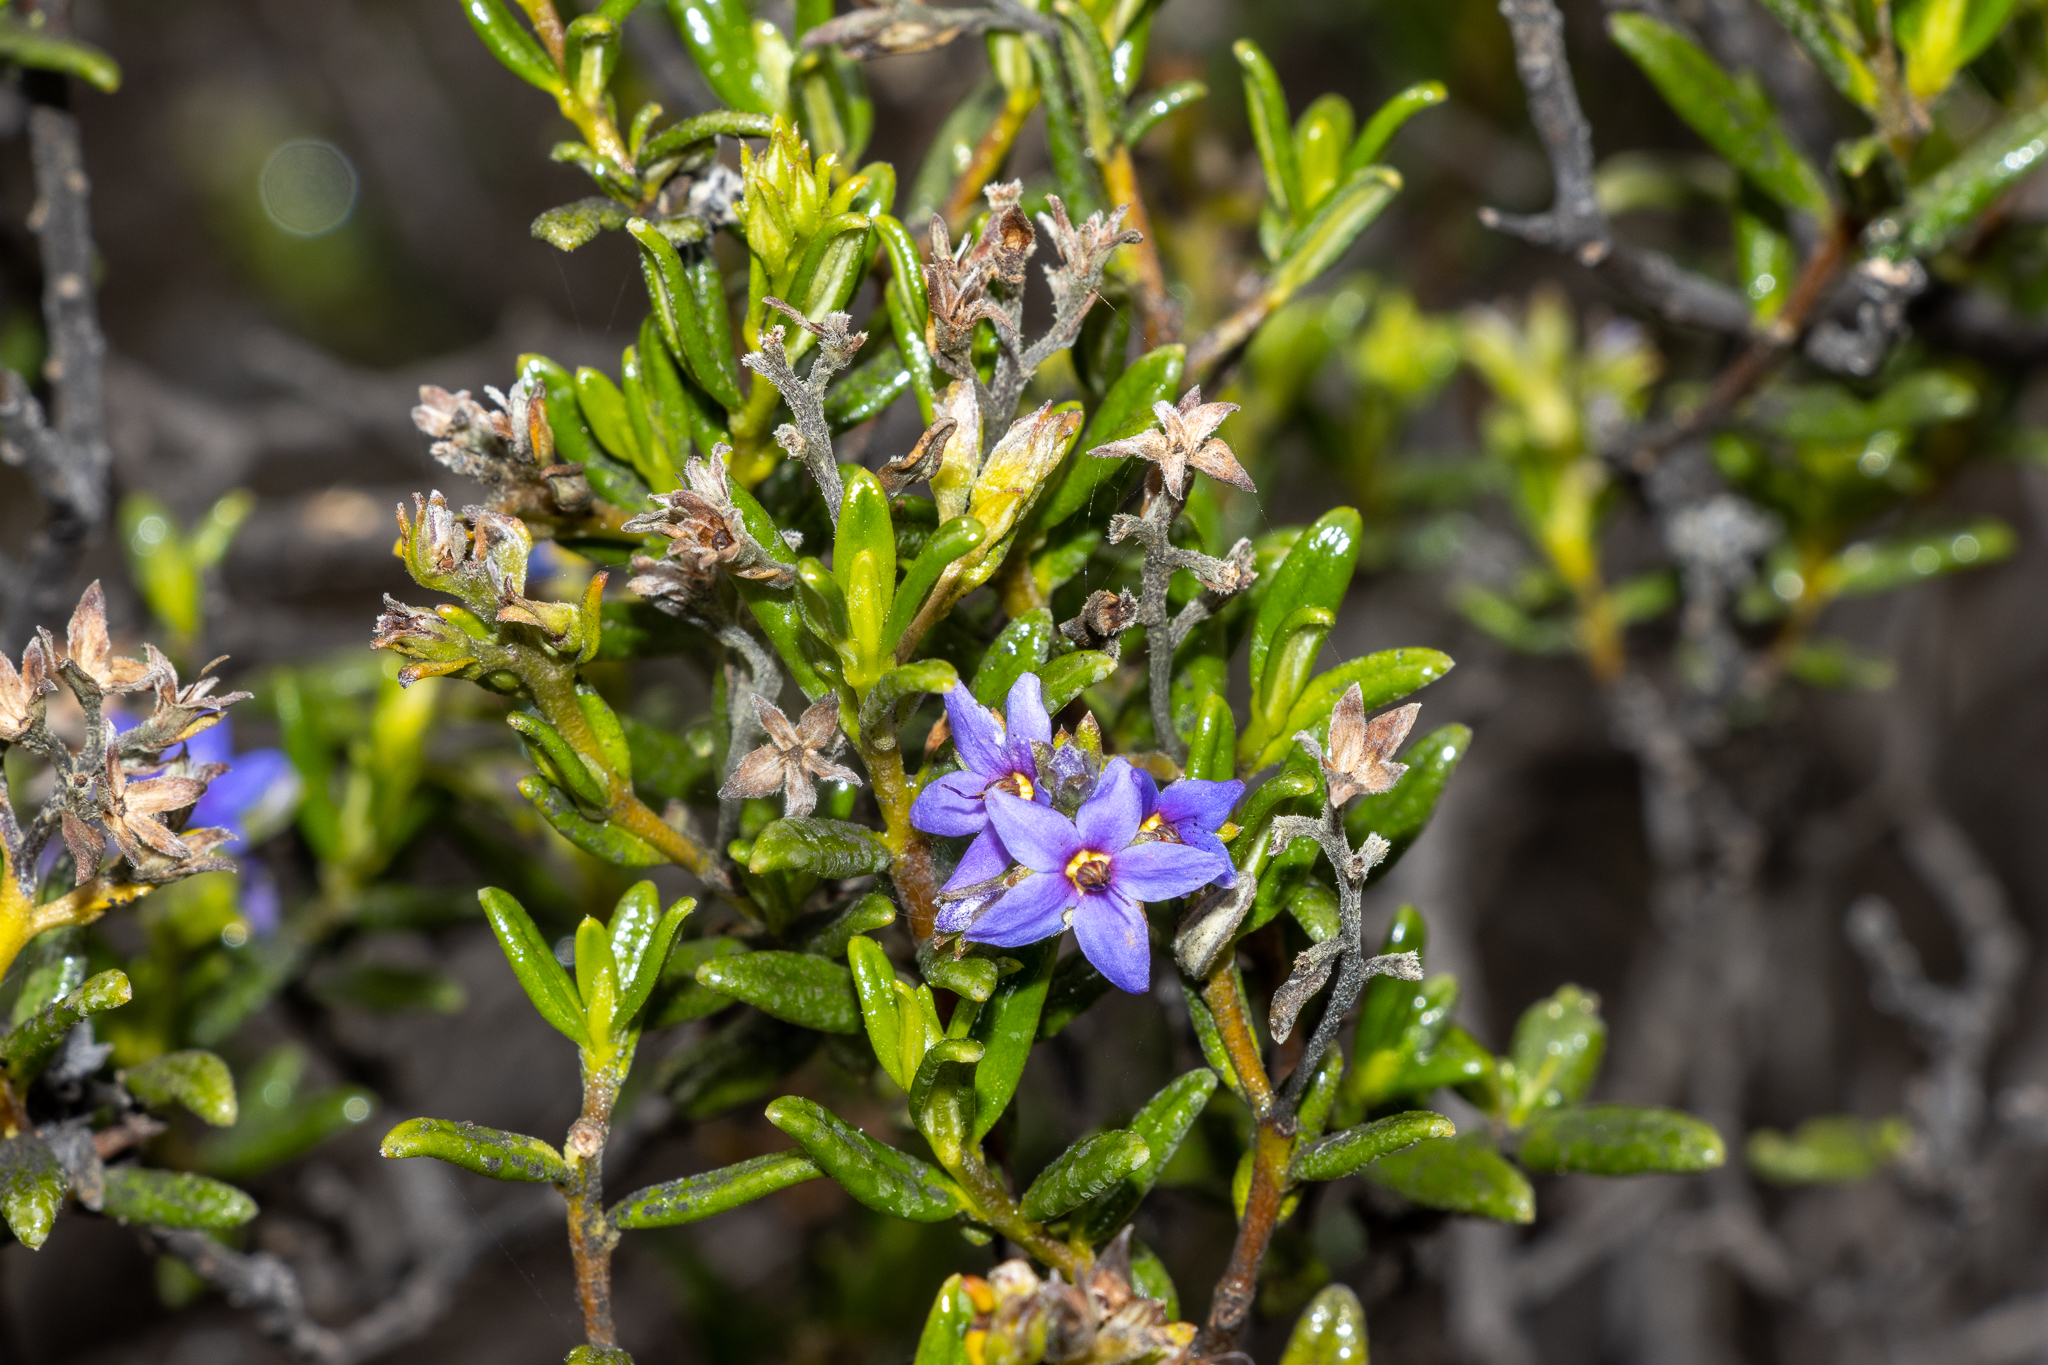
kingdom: Plantae
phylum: Tracheophyta
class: Magnoliopsida
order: Boraginales
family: Ehretiaceae
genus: Halgania
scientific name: Halgania andromedifolia
